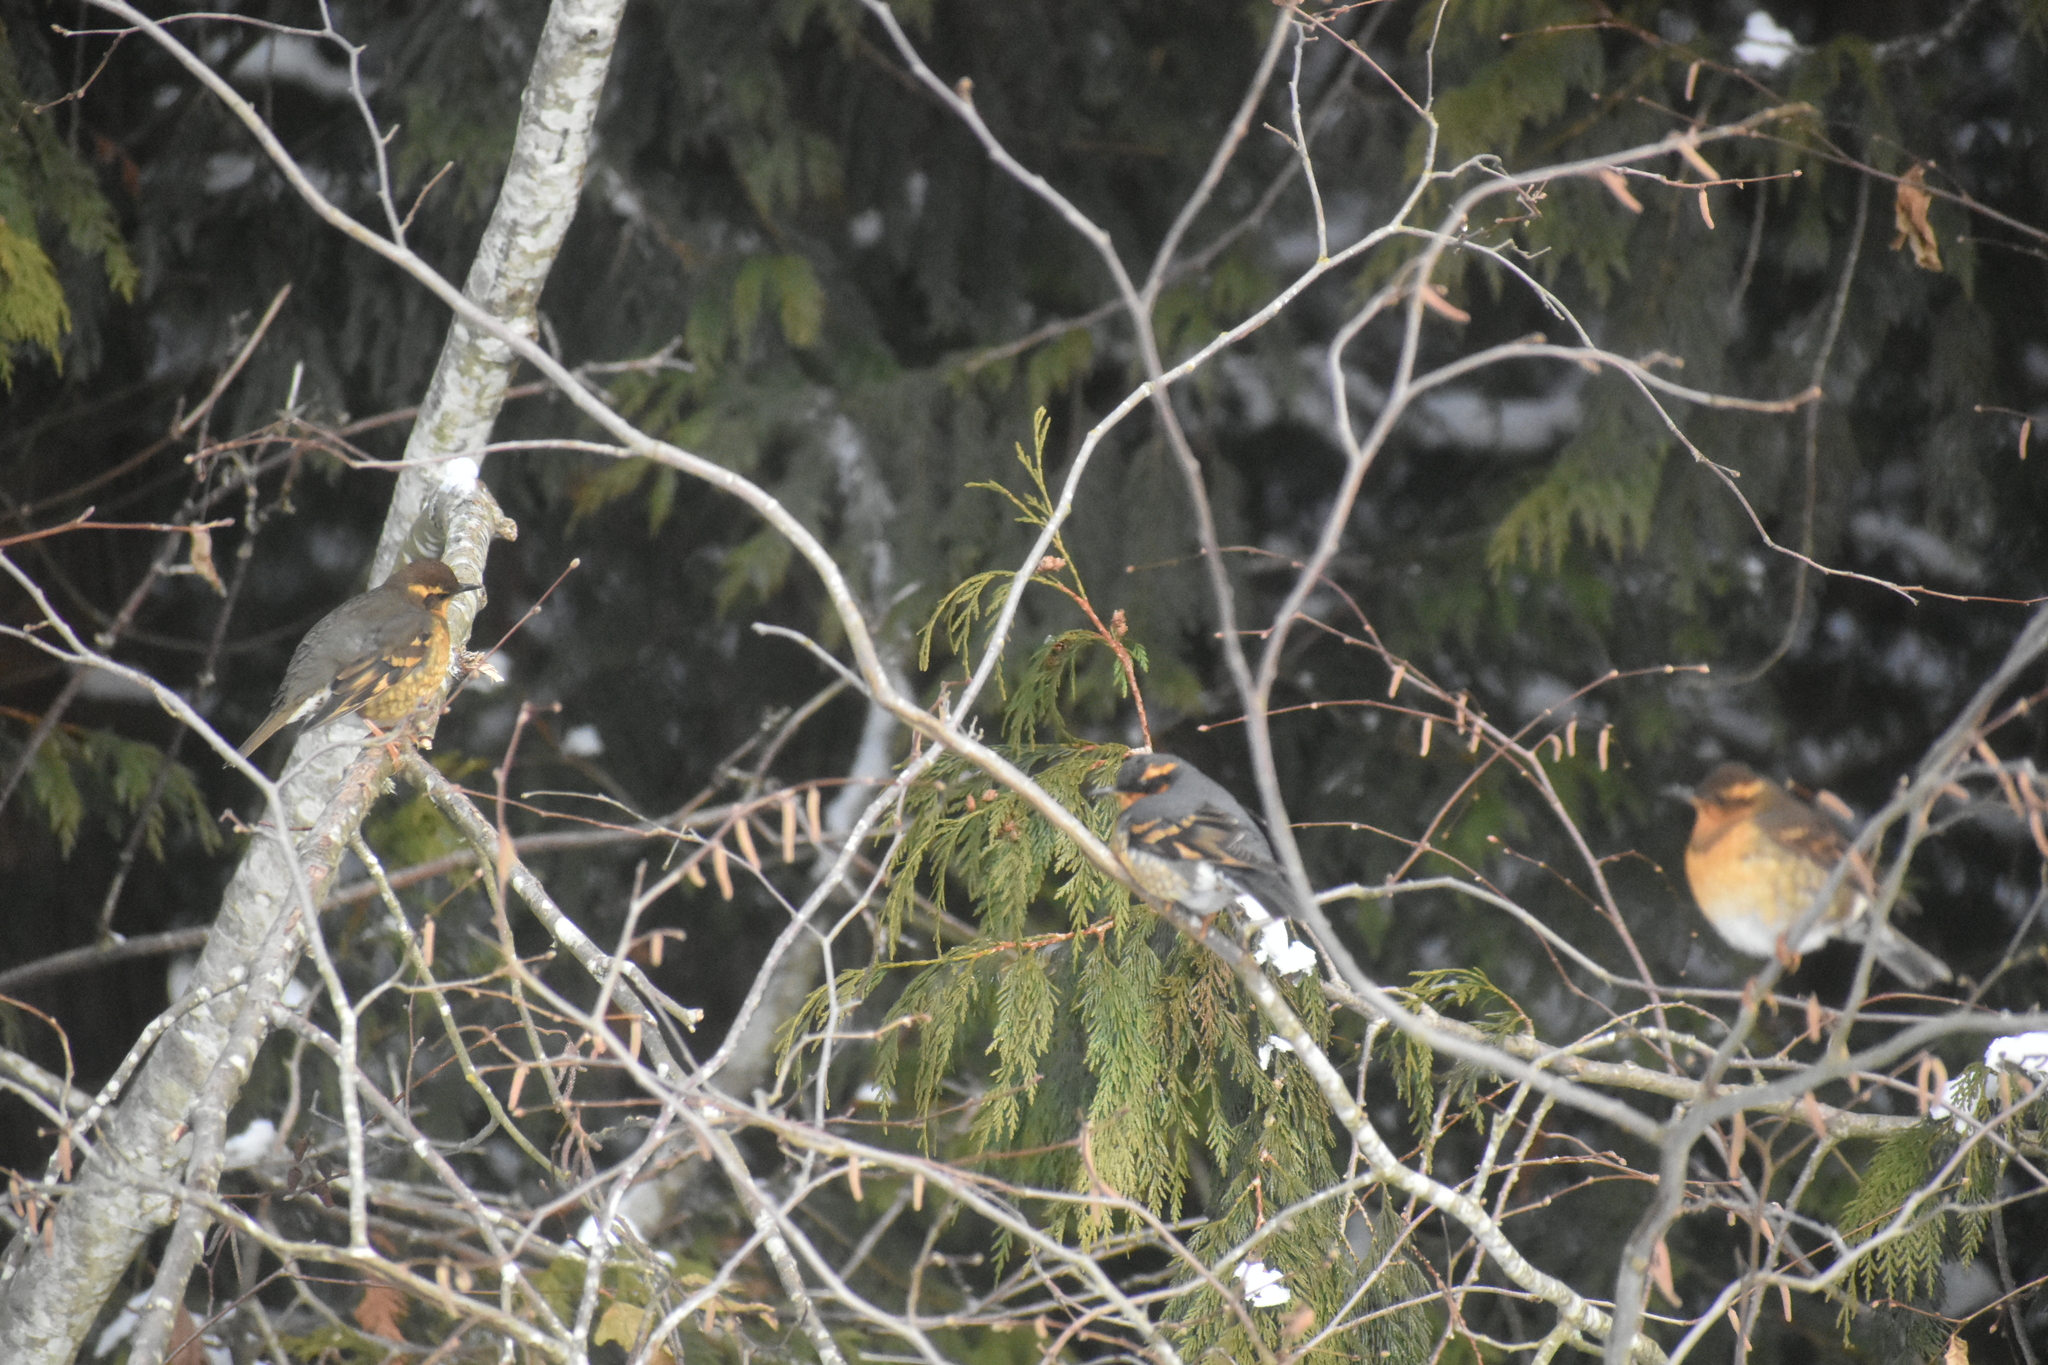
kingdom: Animalia
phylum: Chordata
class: Aves
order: Passeriformes
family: Turdidae
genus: Ixoreus
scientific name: Ixoreus naevius
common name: Varied thrush
